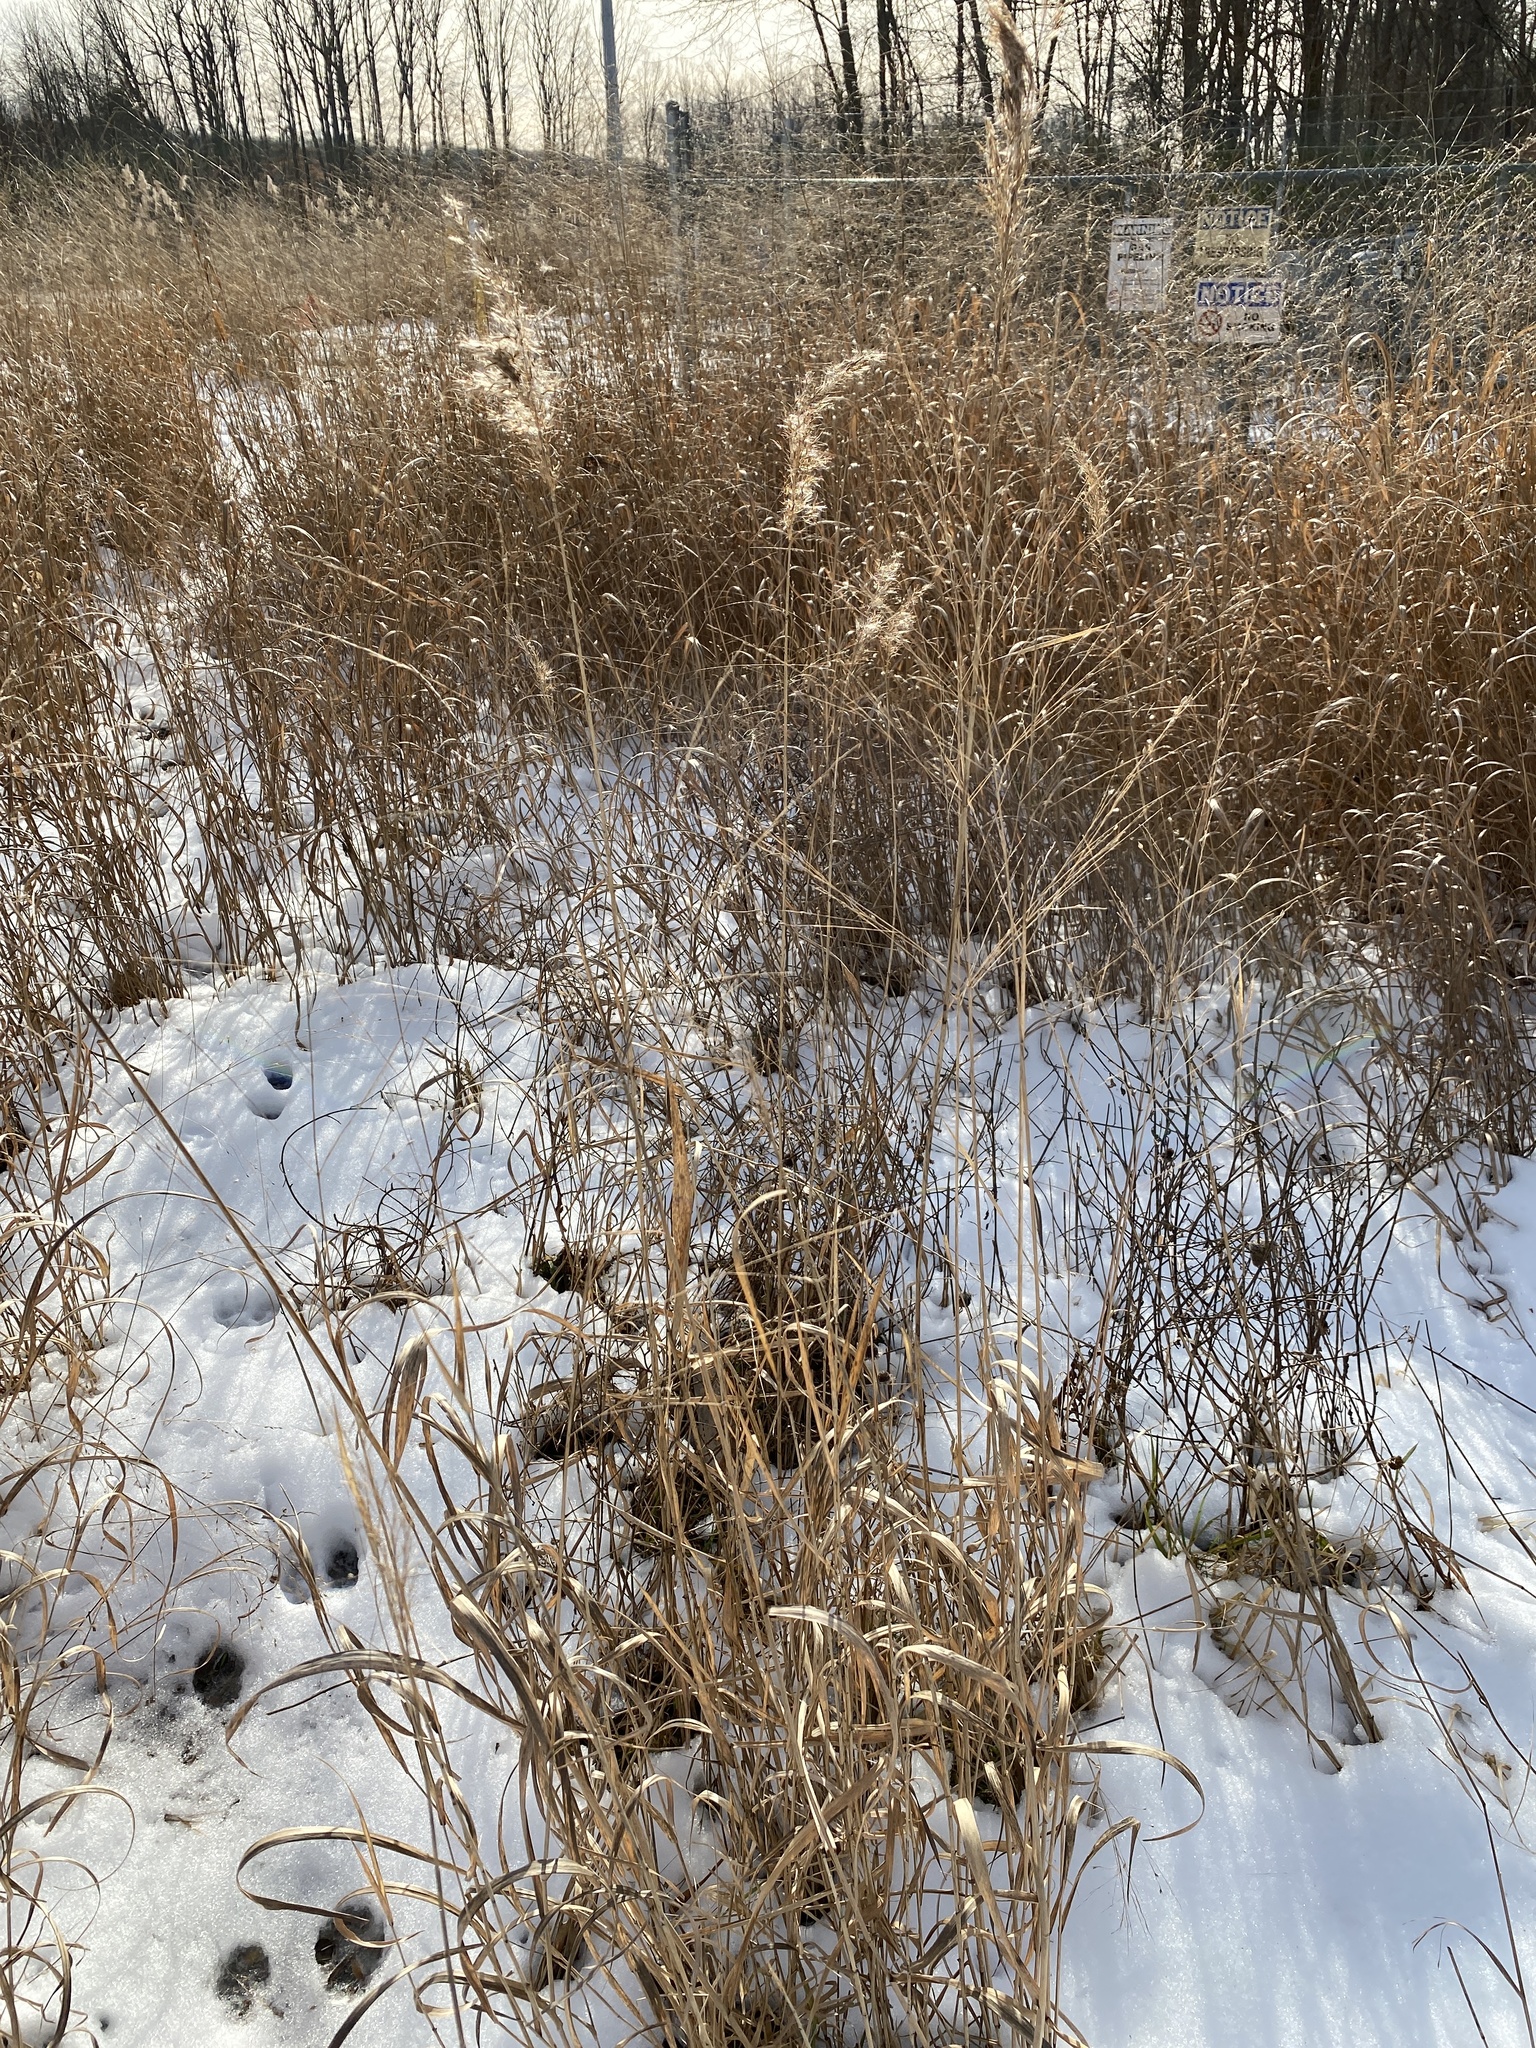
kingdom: Plantae
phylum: Tracheophyta
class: Liliopsida
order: Poales
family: Poaceae
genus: Sorghastrum
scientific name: Sorghastrum nutans
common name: Indian grass
